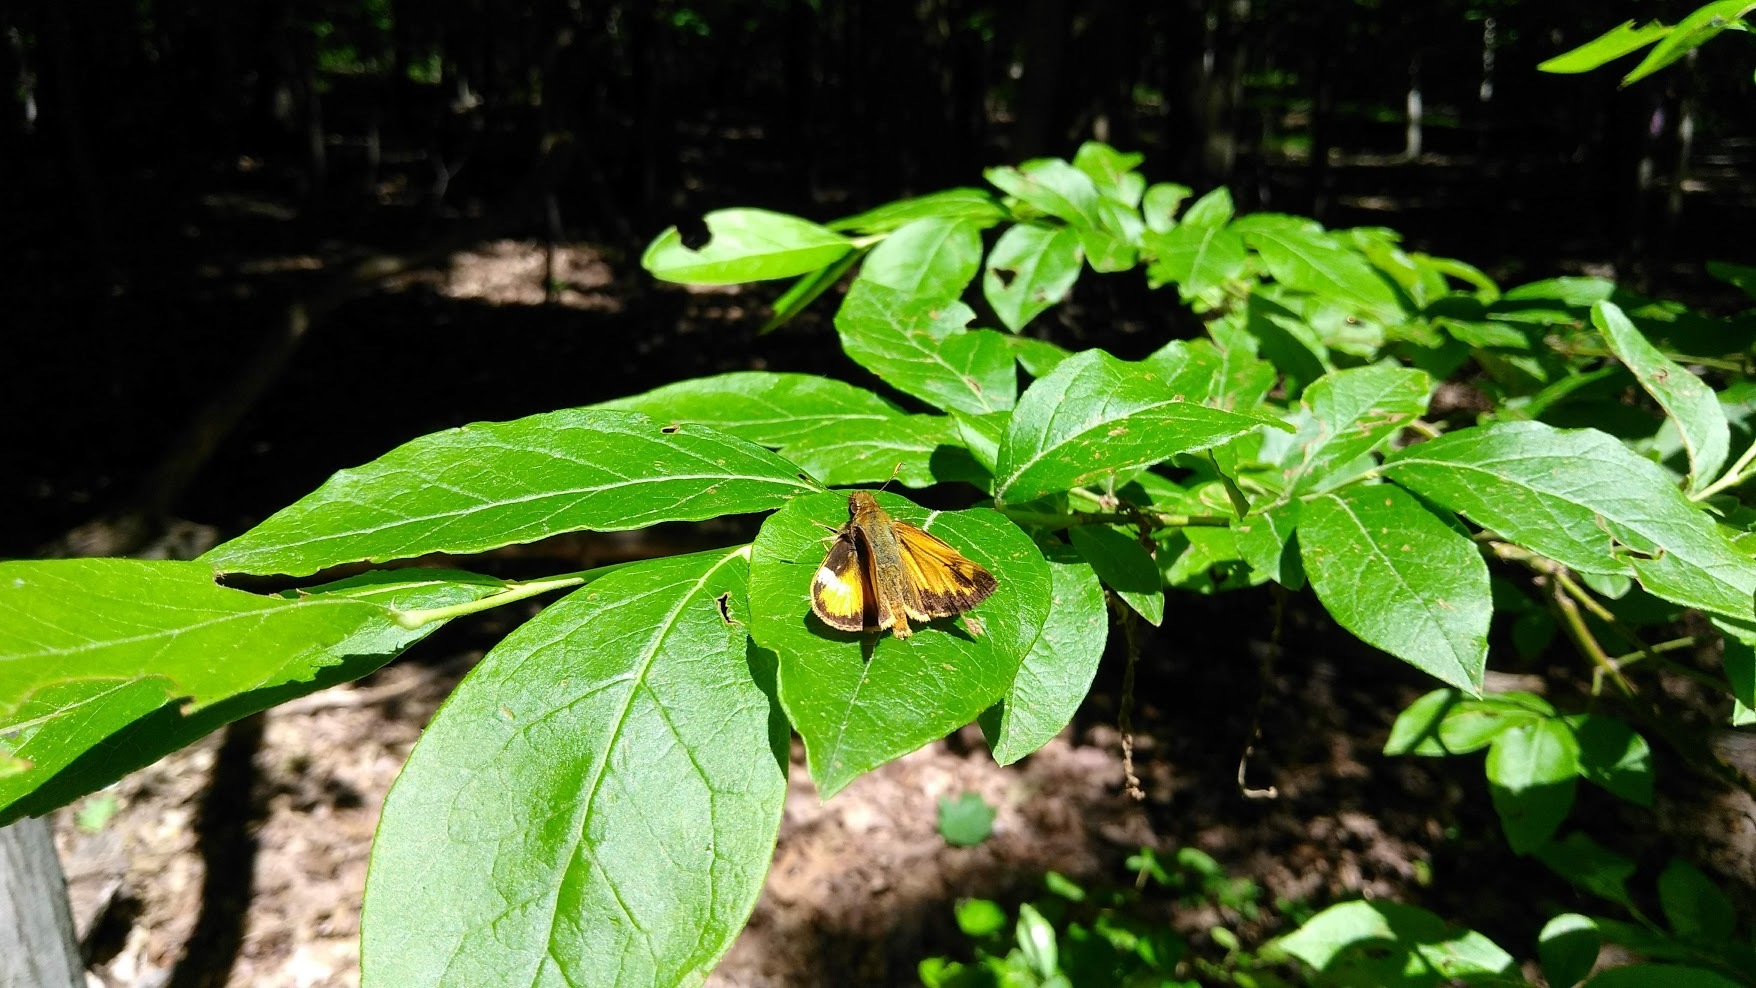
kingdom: Animalia
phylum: Arthropoda
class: Insecta
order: Lepidoptera
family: Hesperiidae
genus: Lon
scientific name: Lon zabulon
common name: Zabulon skipper
